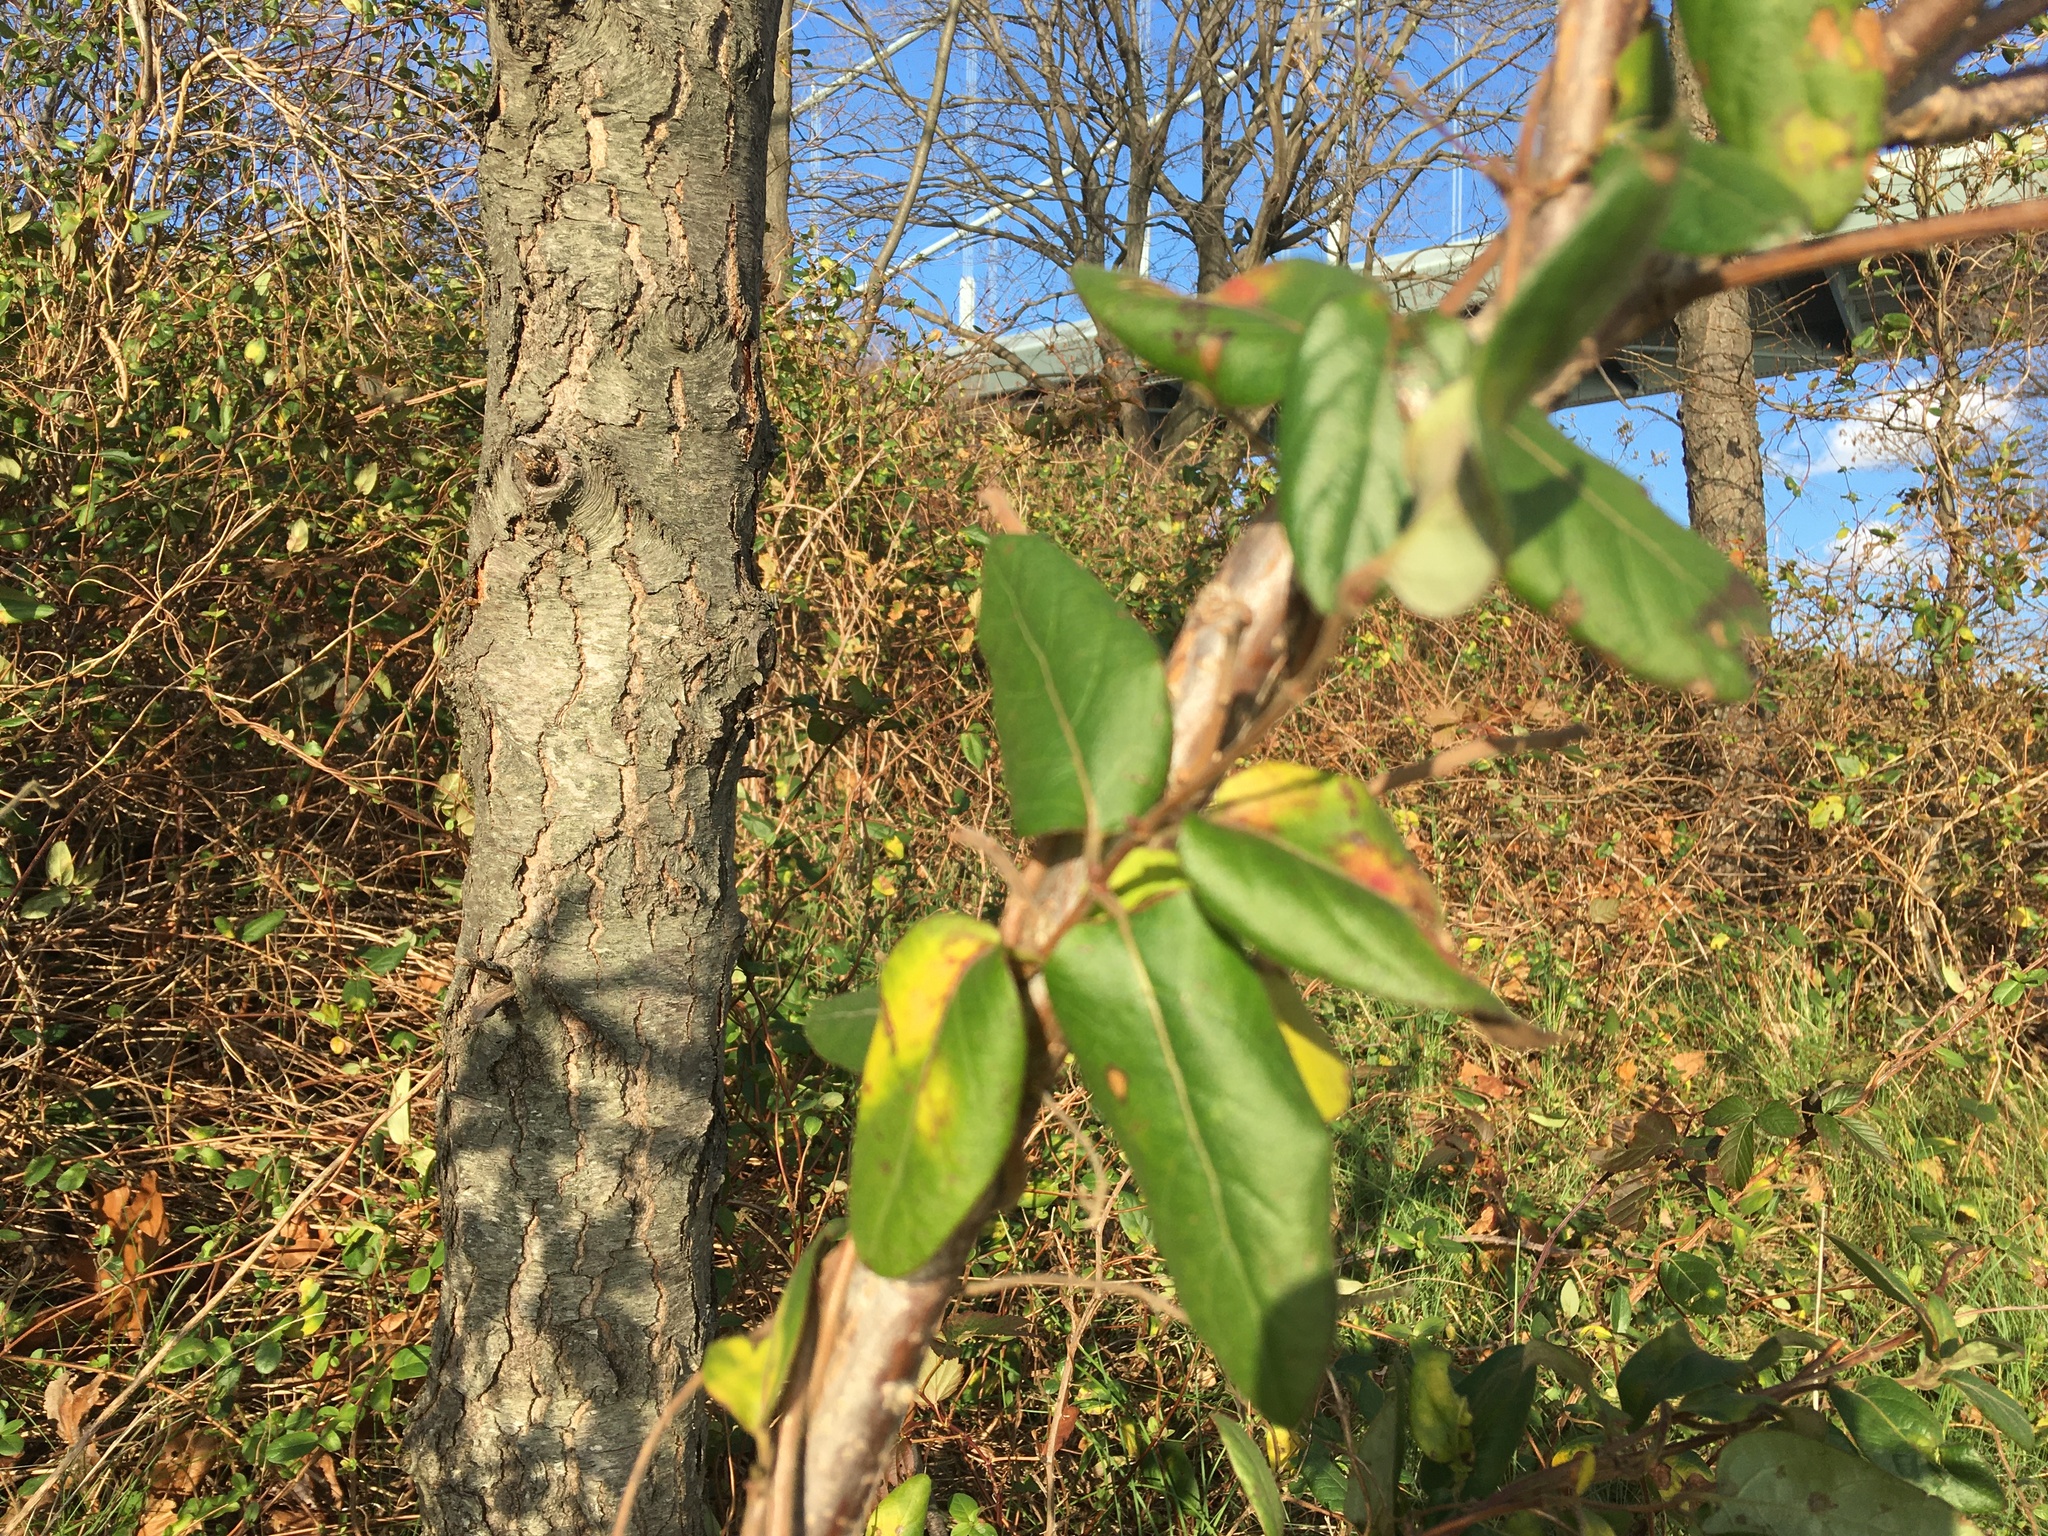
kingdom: Plantae
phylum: Tracheophyta
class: Magnoliopsida
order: Dipsacales
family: Caprifoliaceae
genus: Lonicera
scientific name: Lonicera japonica
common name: Japanese honeysuckle
